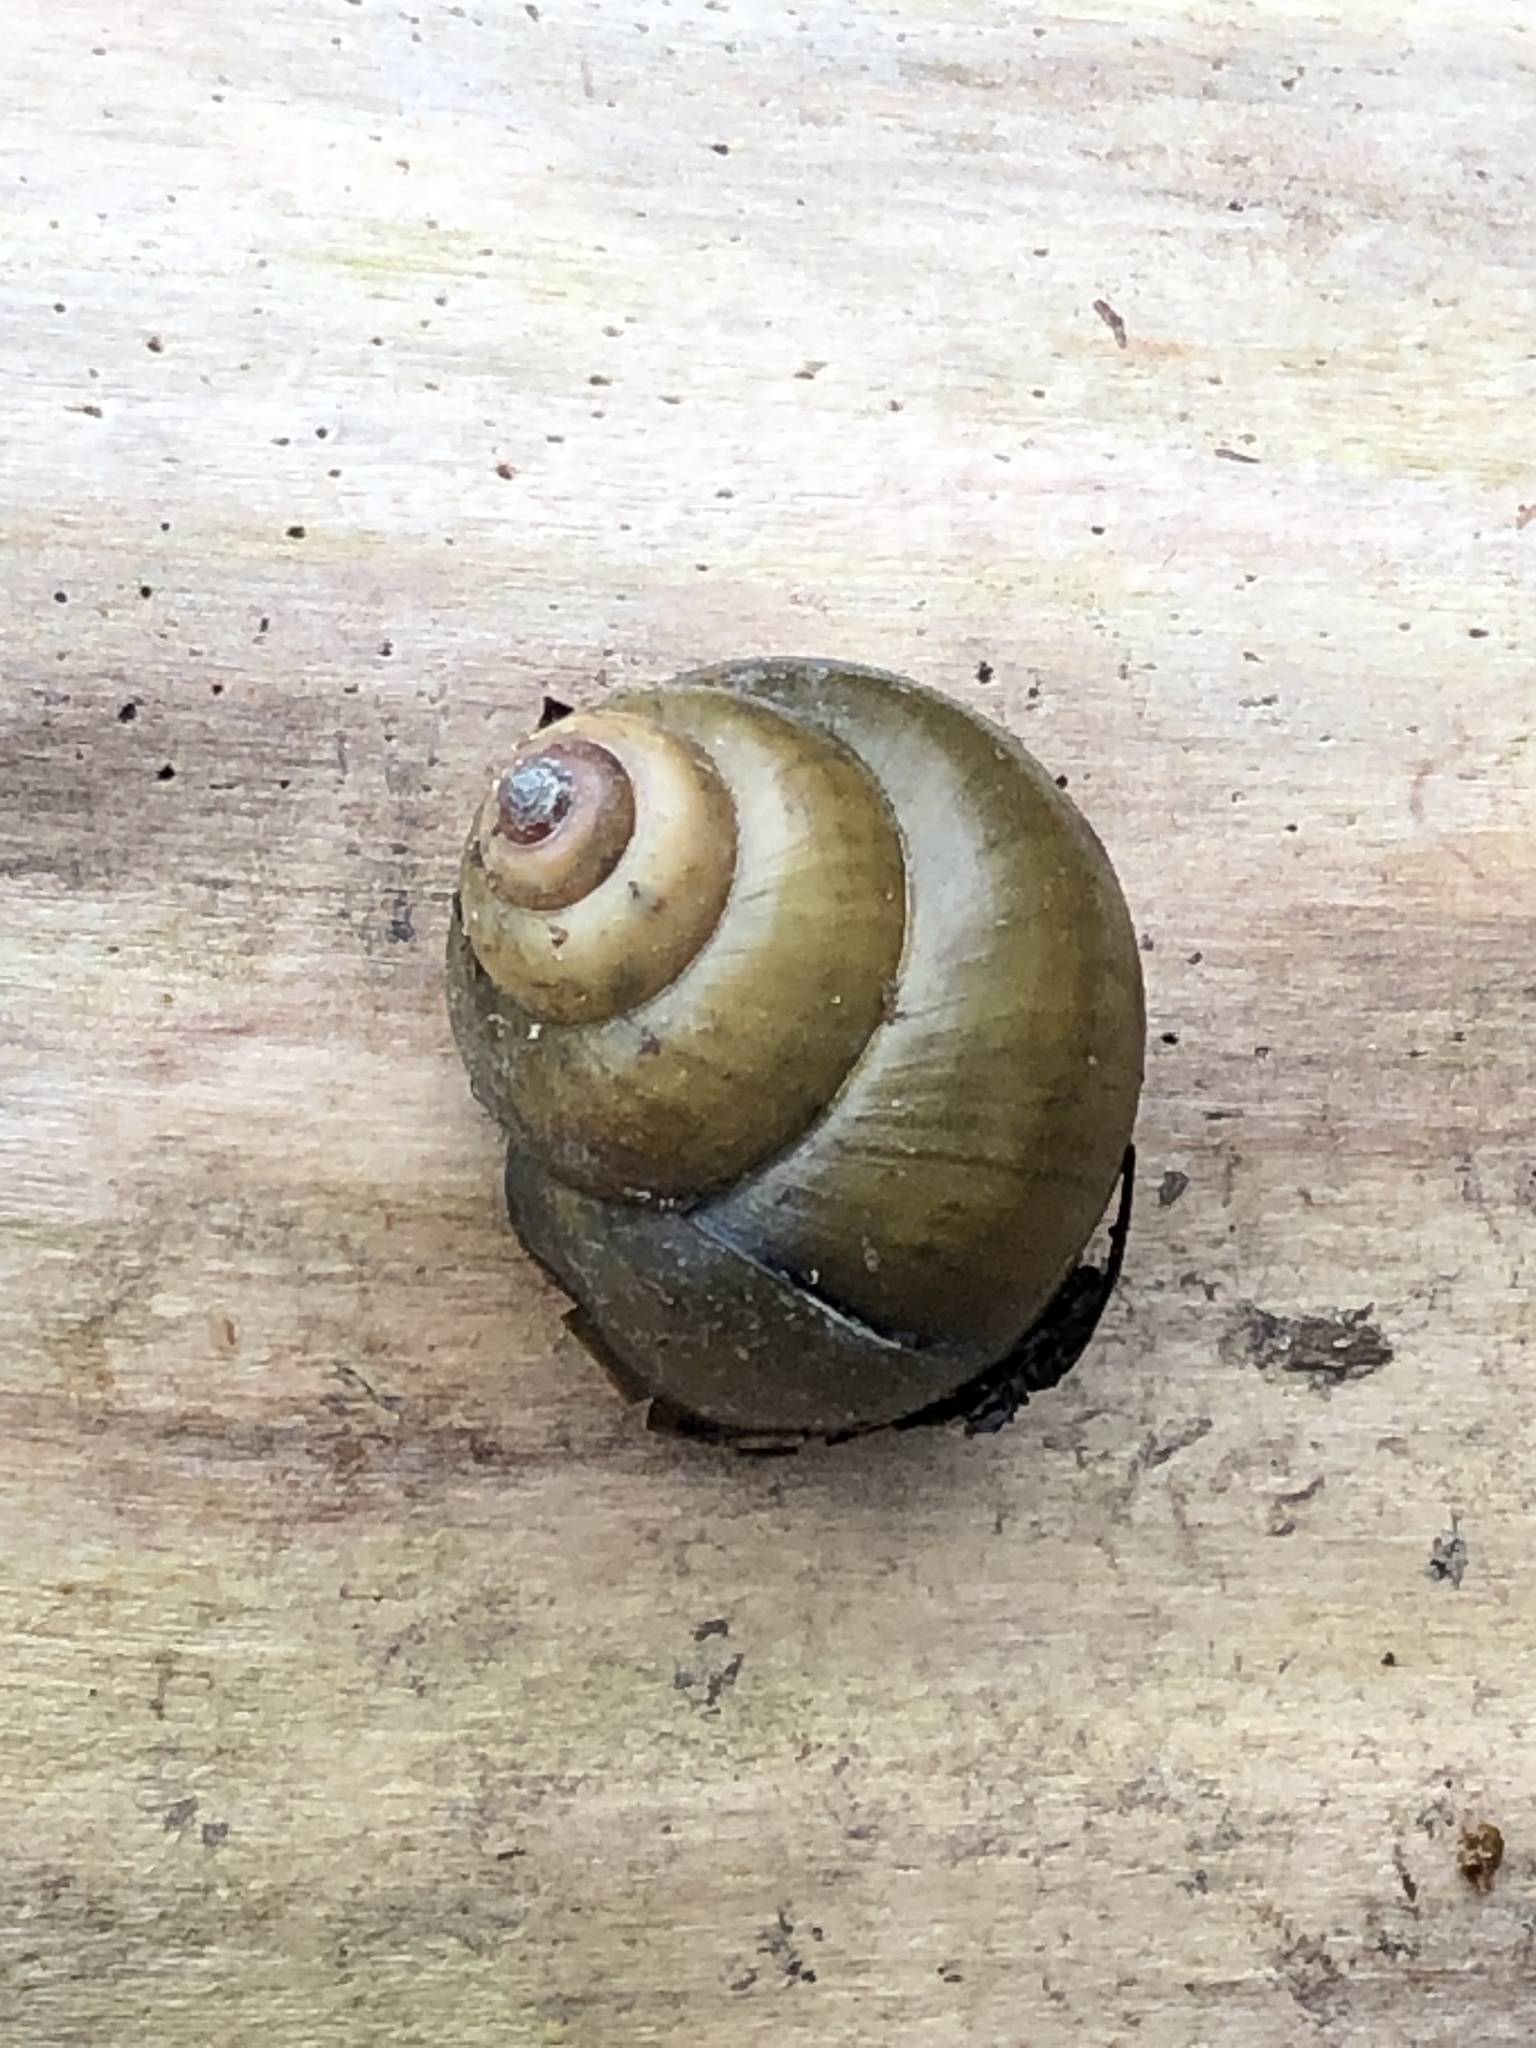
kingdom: Animalia
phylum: Mollusca
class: Gastropoda
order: Architaenioglossa
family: Viviparidae
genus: Cipangopaludina
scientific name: Cipangopaludina chinensis
